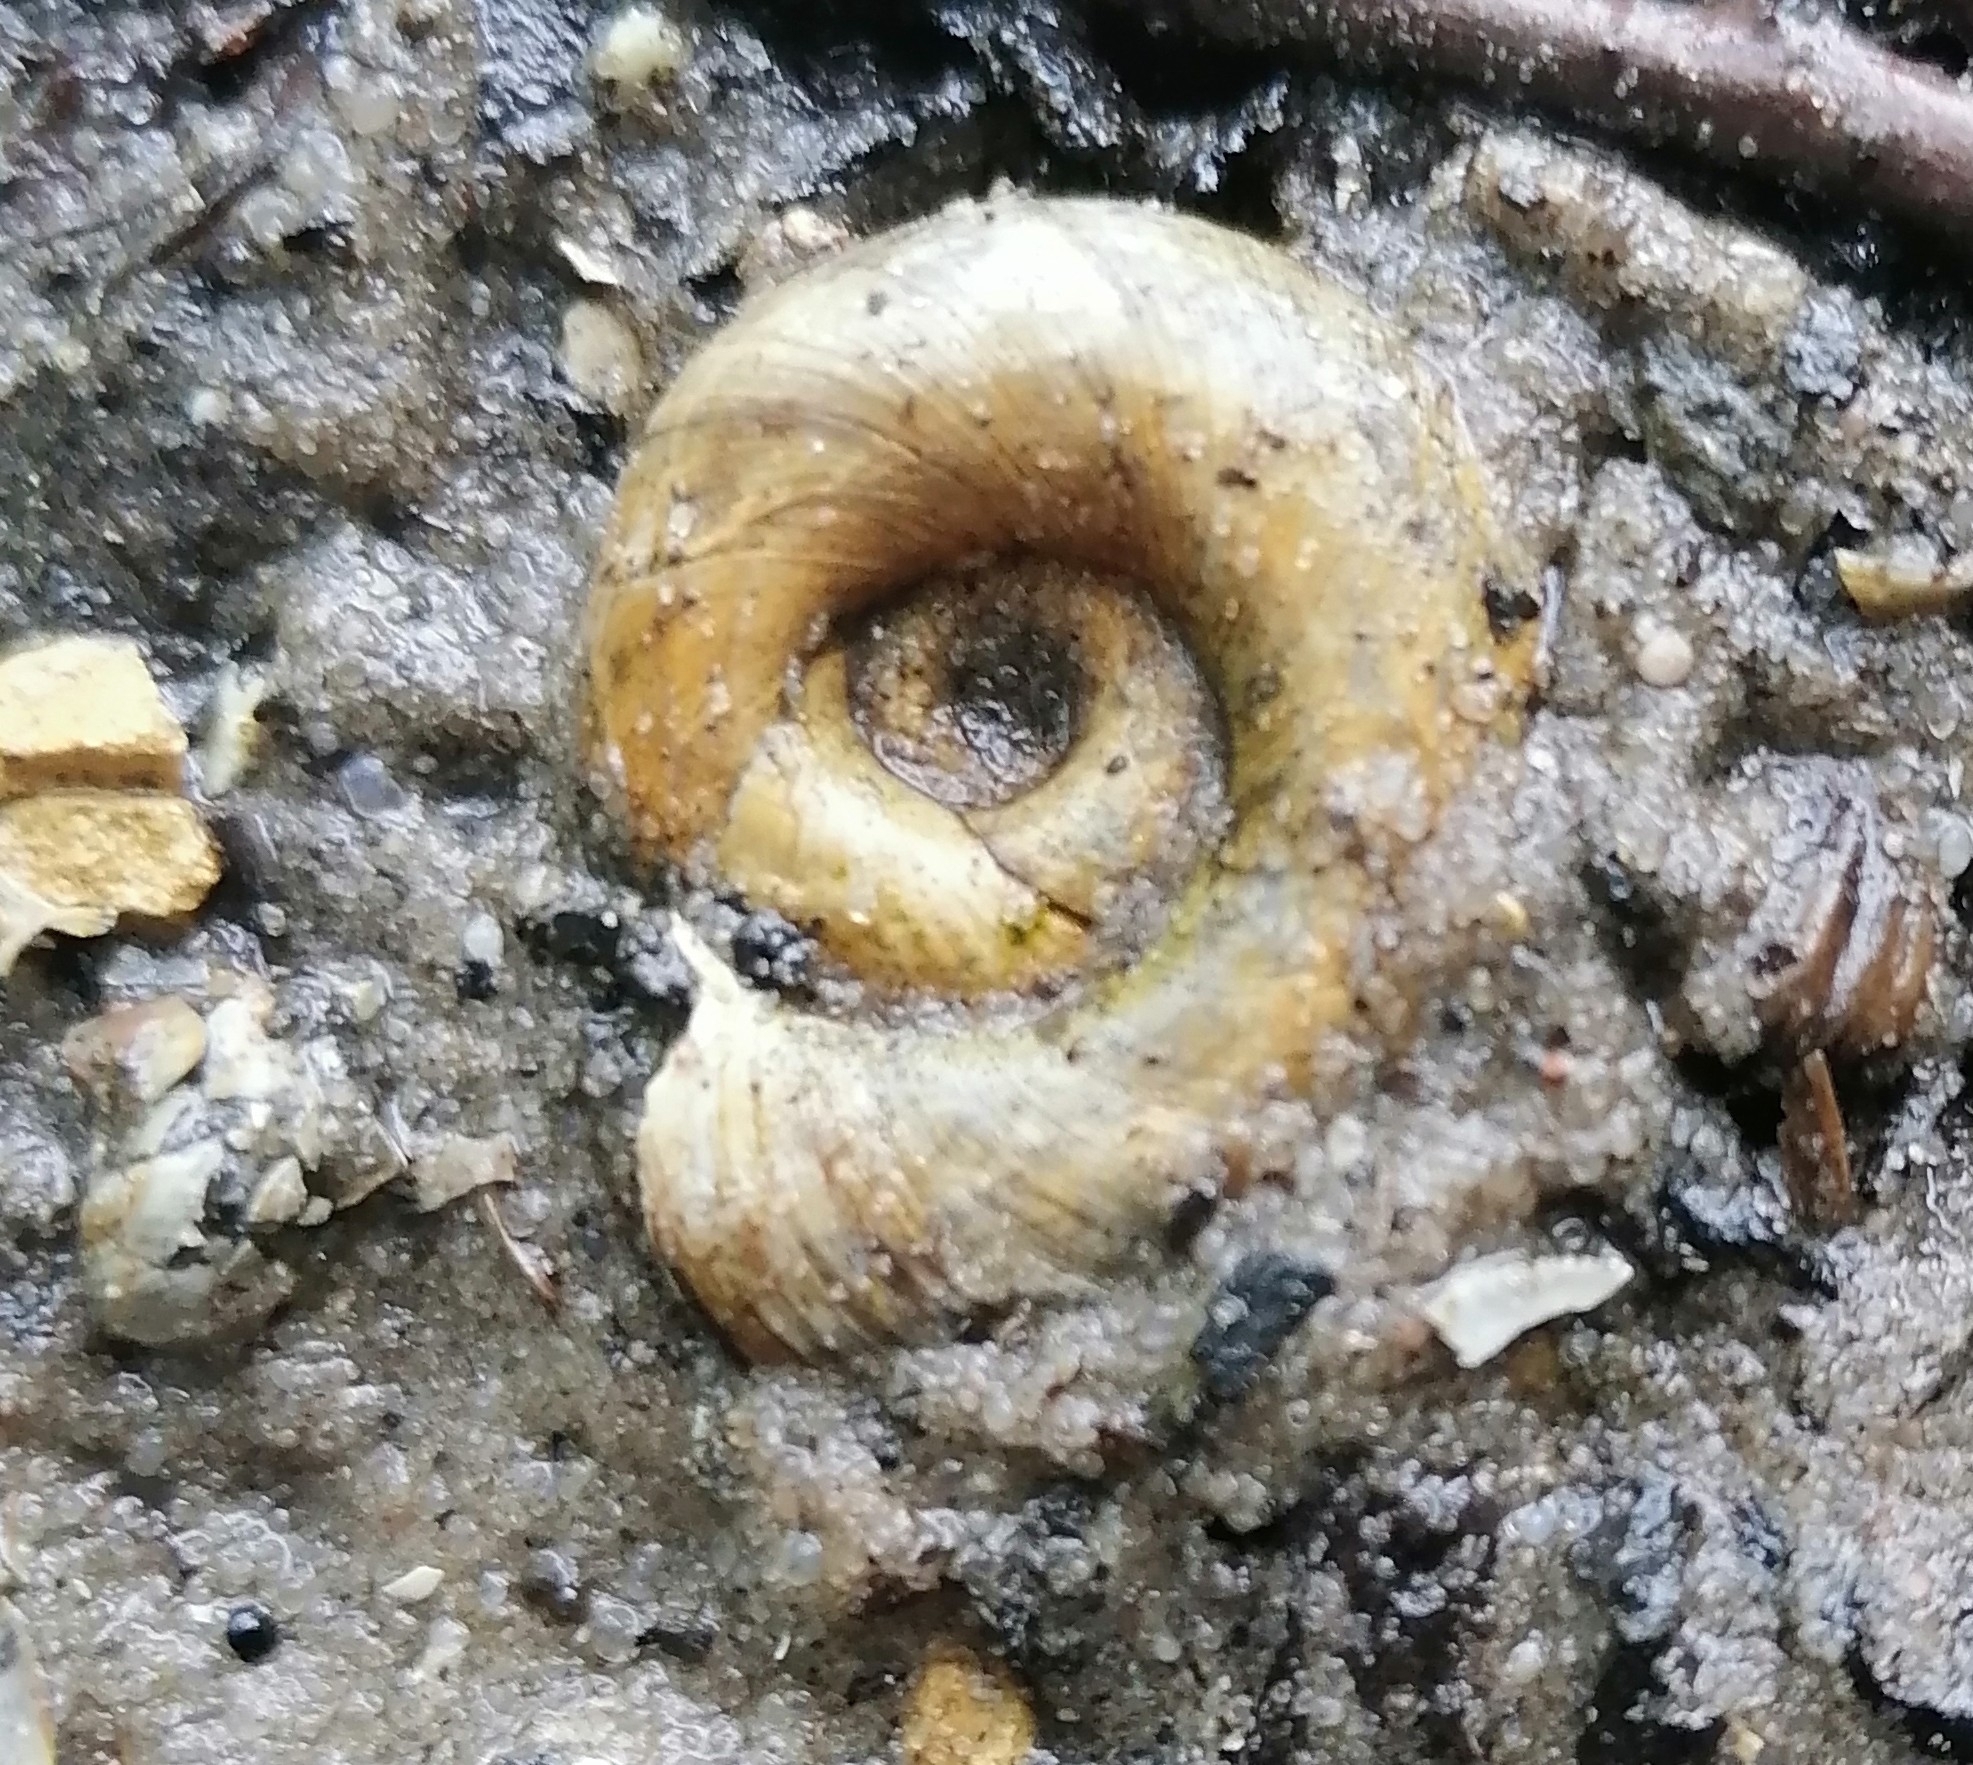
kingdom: Animalia
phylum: Mollusca
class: Gastropoda
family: Planorbidae
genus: Planorbarius
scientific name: Planorbarius corneus
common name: Great ramshorn
